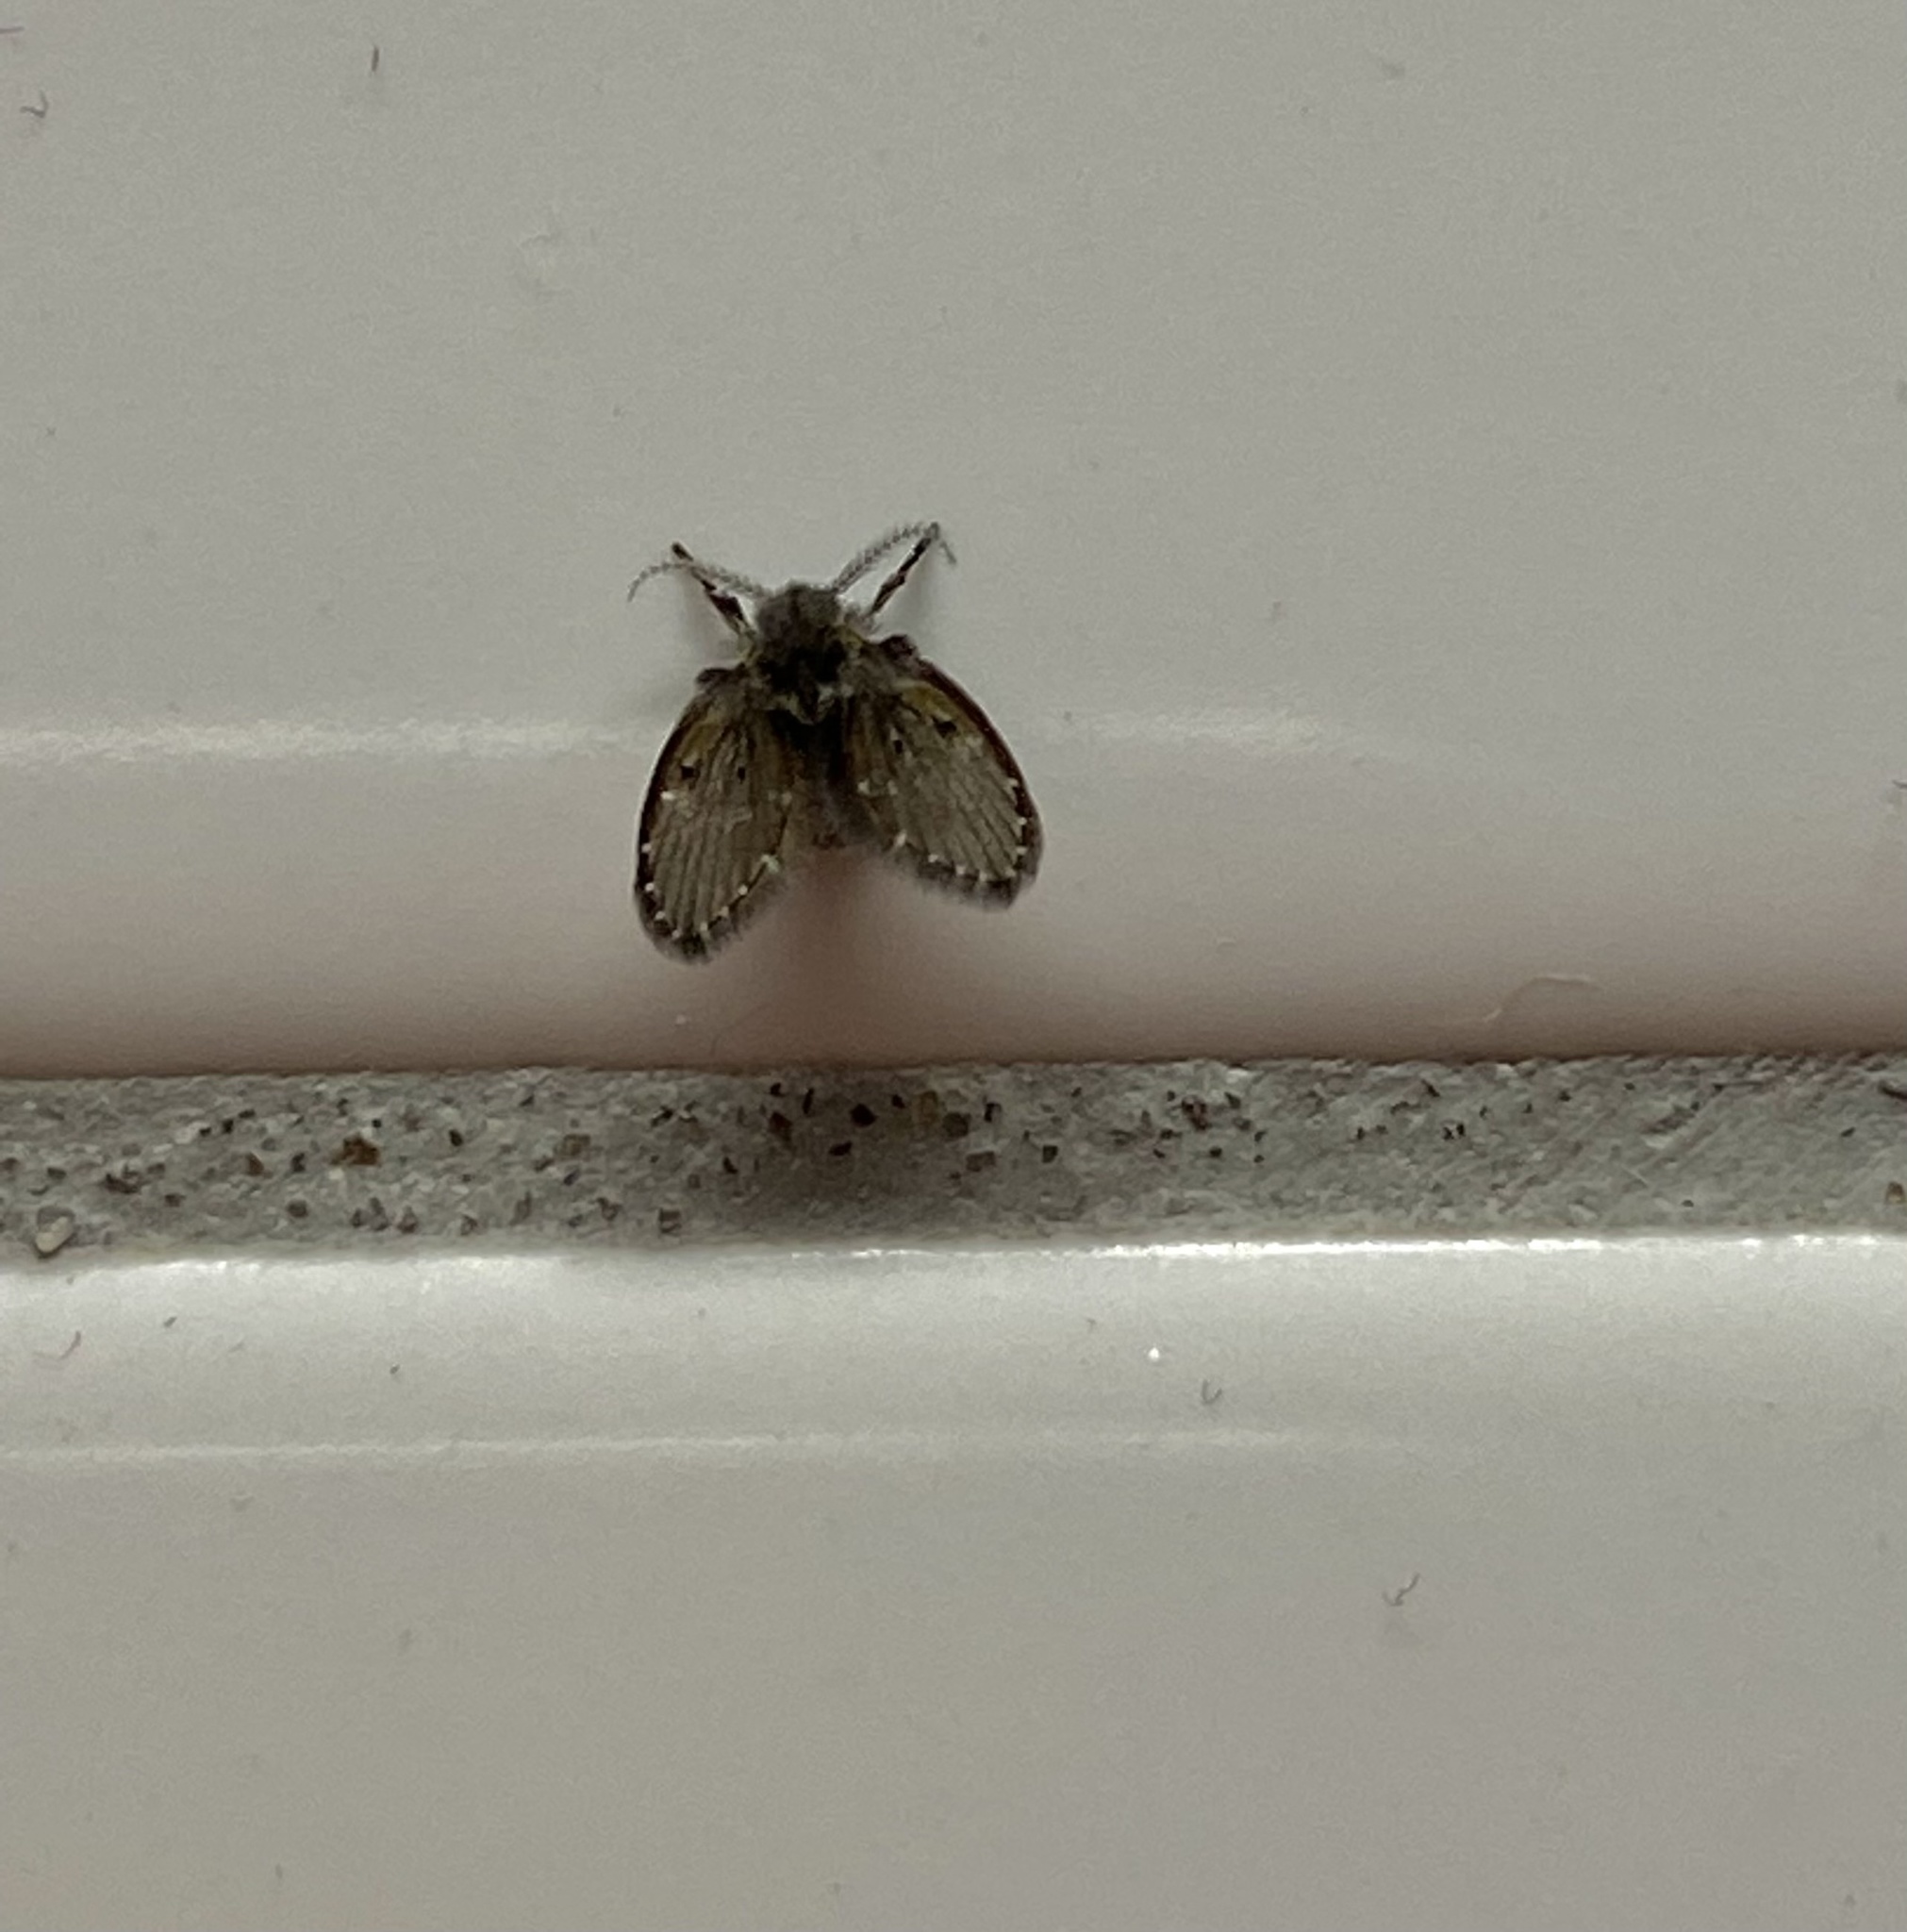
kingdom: Animalia
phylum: Arthropoda
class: Insecta
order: Diptera
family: Psychodidae
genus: Clogmia
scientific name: Clogmia albipunctatus
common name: White-spotted moth fly
